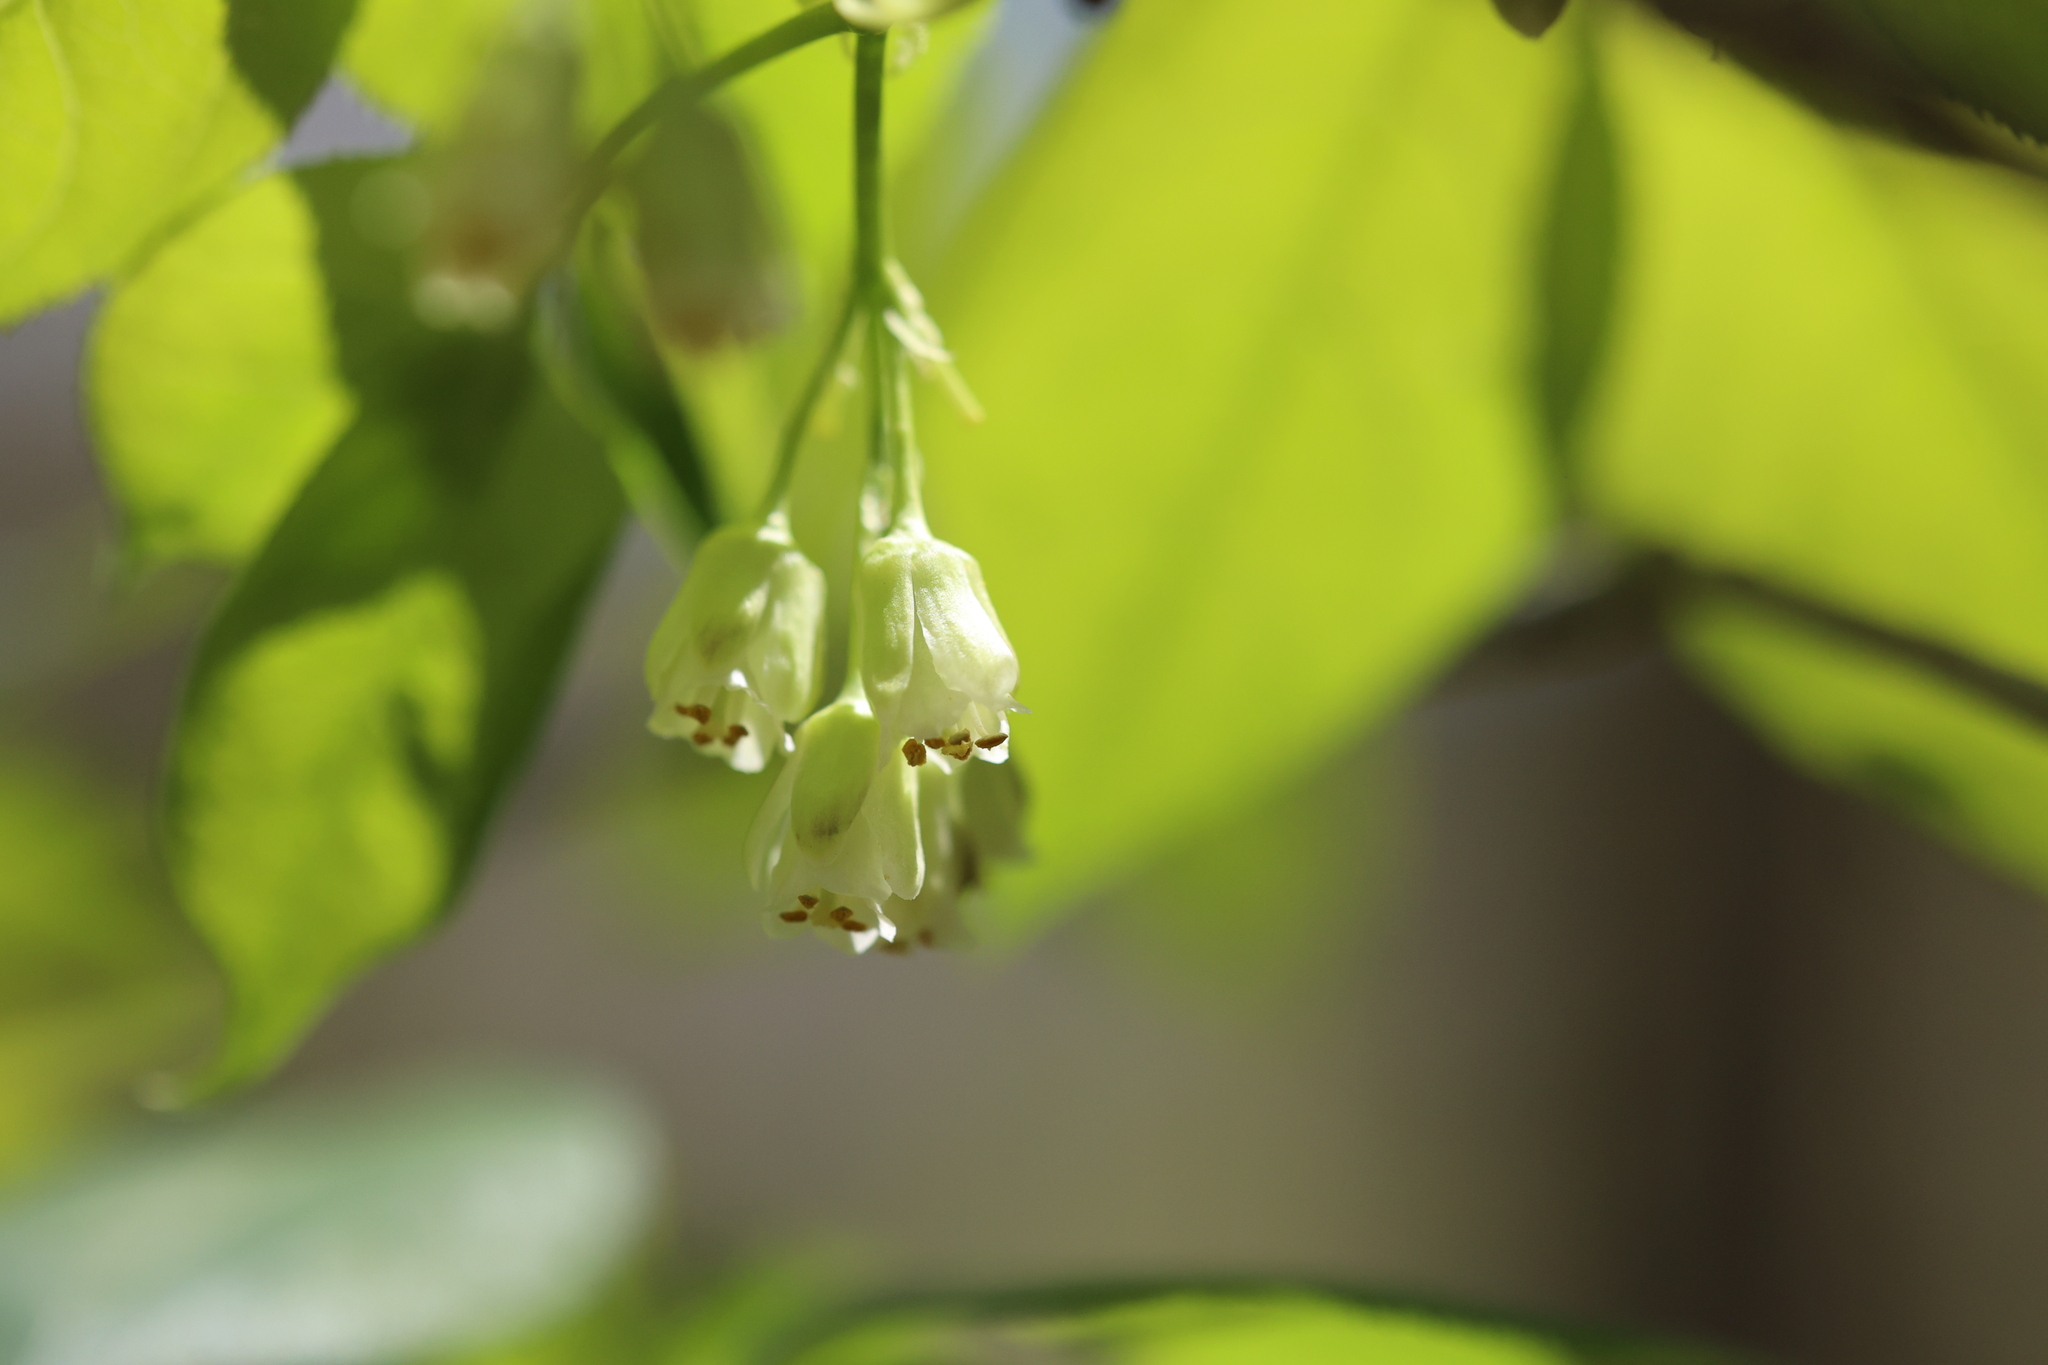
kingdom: Plantae
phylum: Tracheophyta
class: Magnoliopsida
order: Crossosomatales
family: Staphyleaceae
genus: Staphylea
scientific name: Staphylea trifolia
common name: American bladdernut
